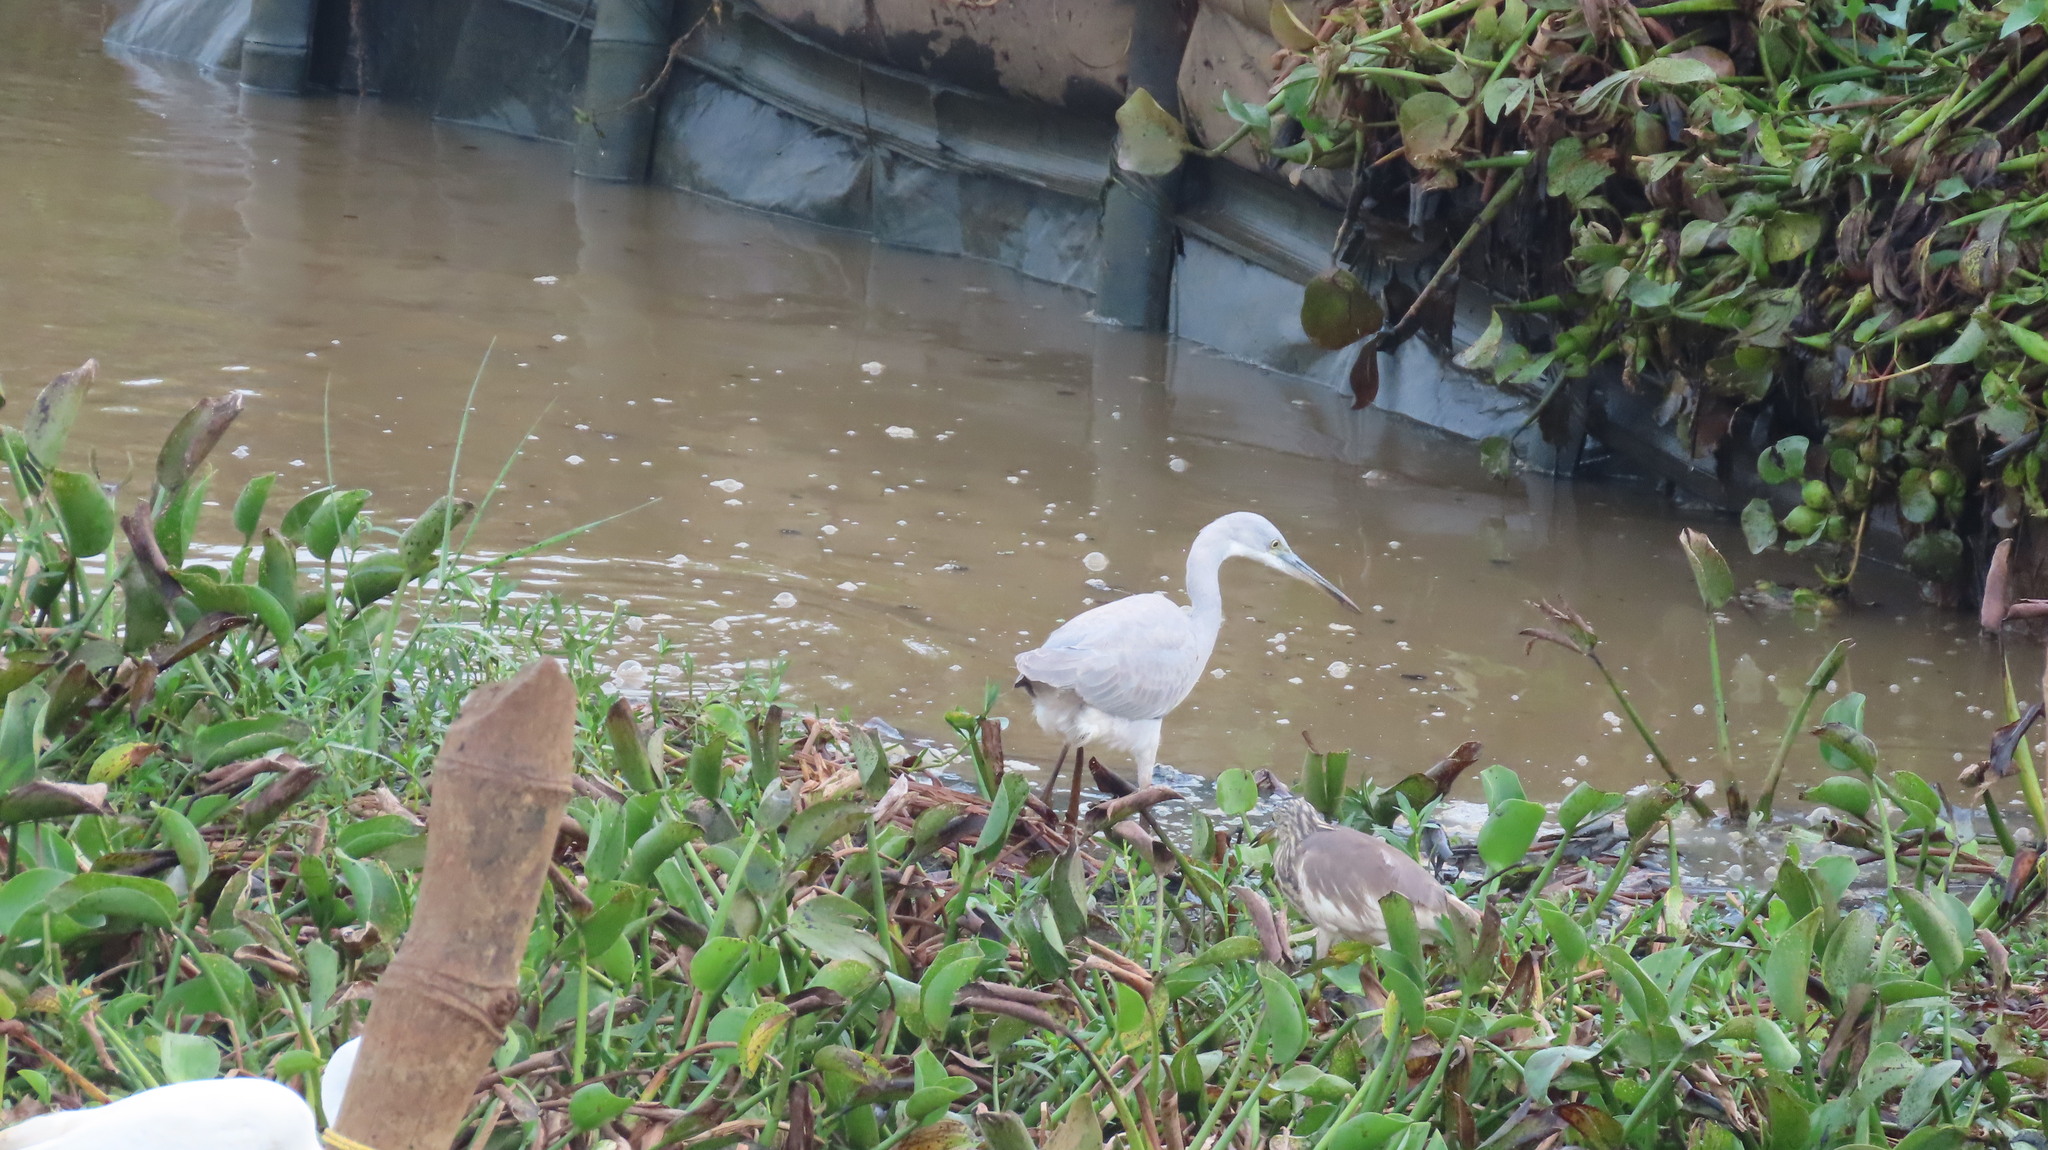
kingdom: Animalia
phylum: Chordata
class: Aves
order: Pelecaniformes
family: Ardeidae
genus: Egretta
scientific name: Egretta gularis
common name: Western reef-heron
